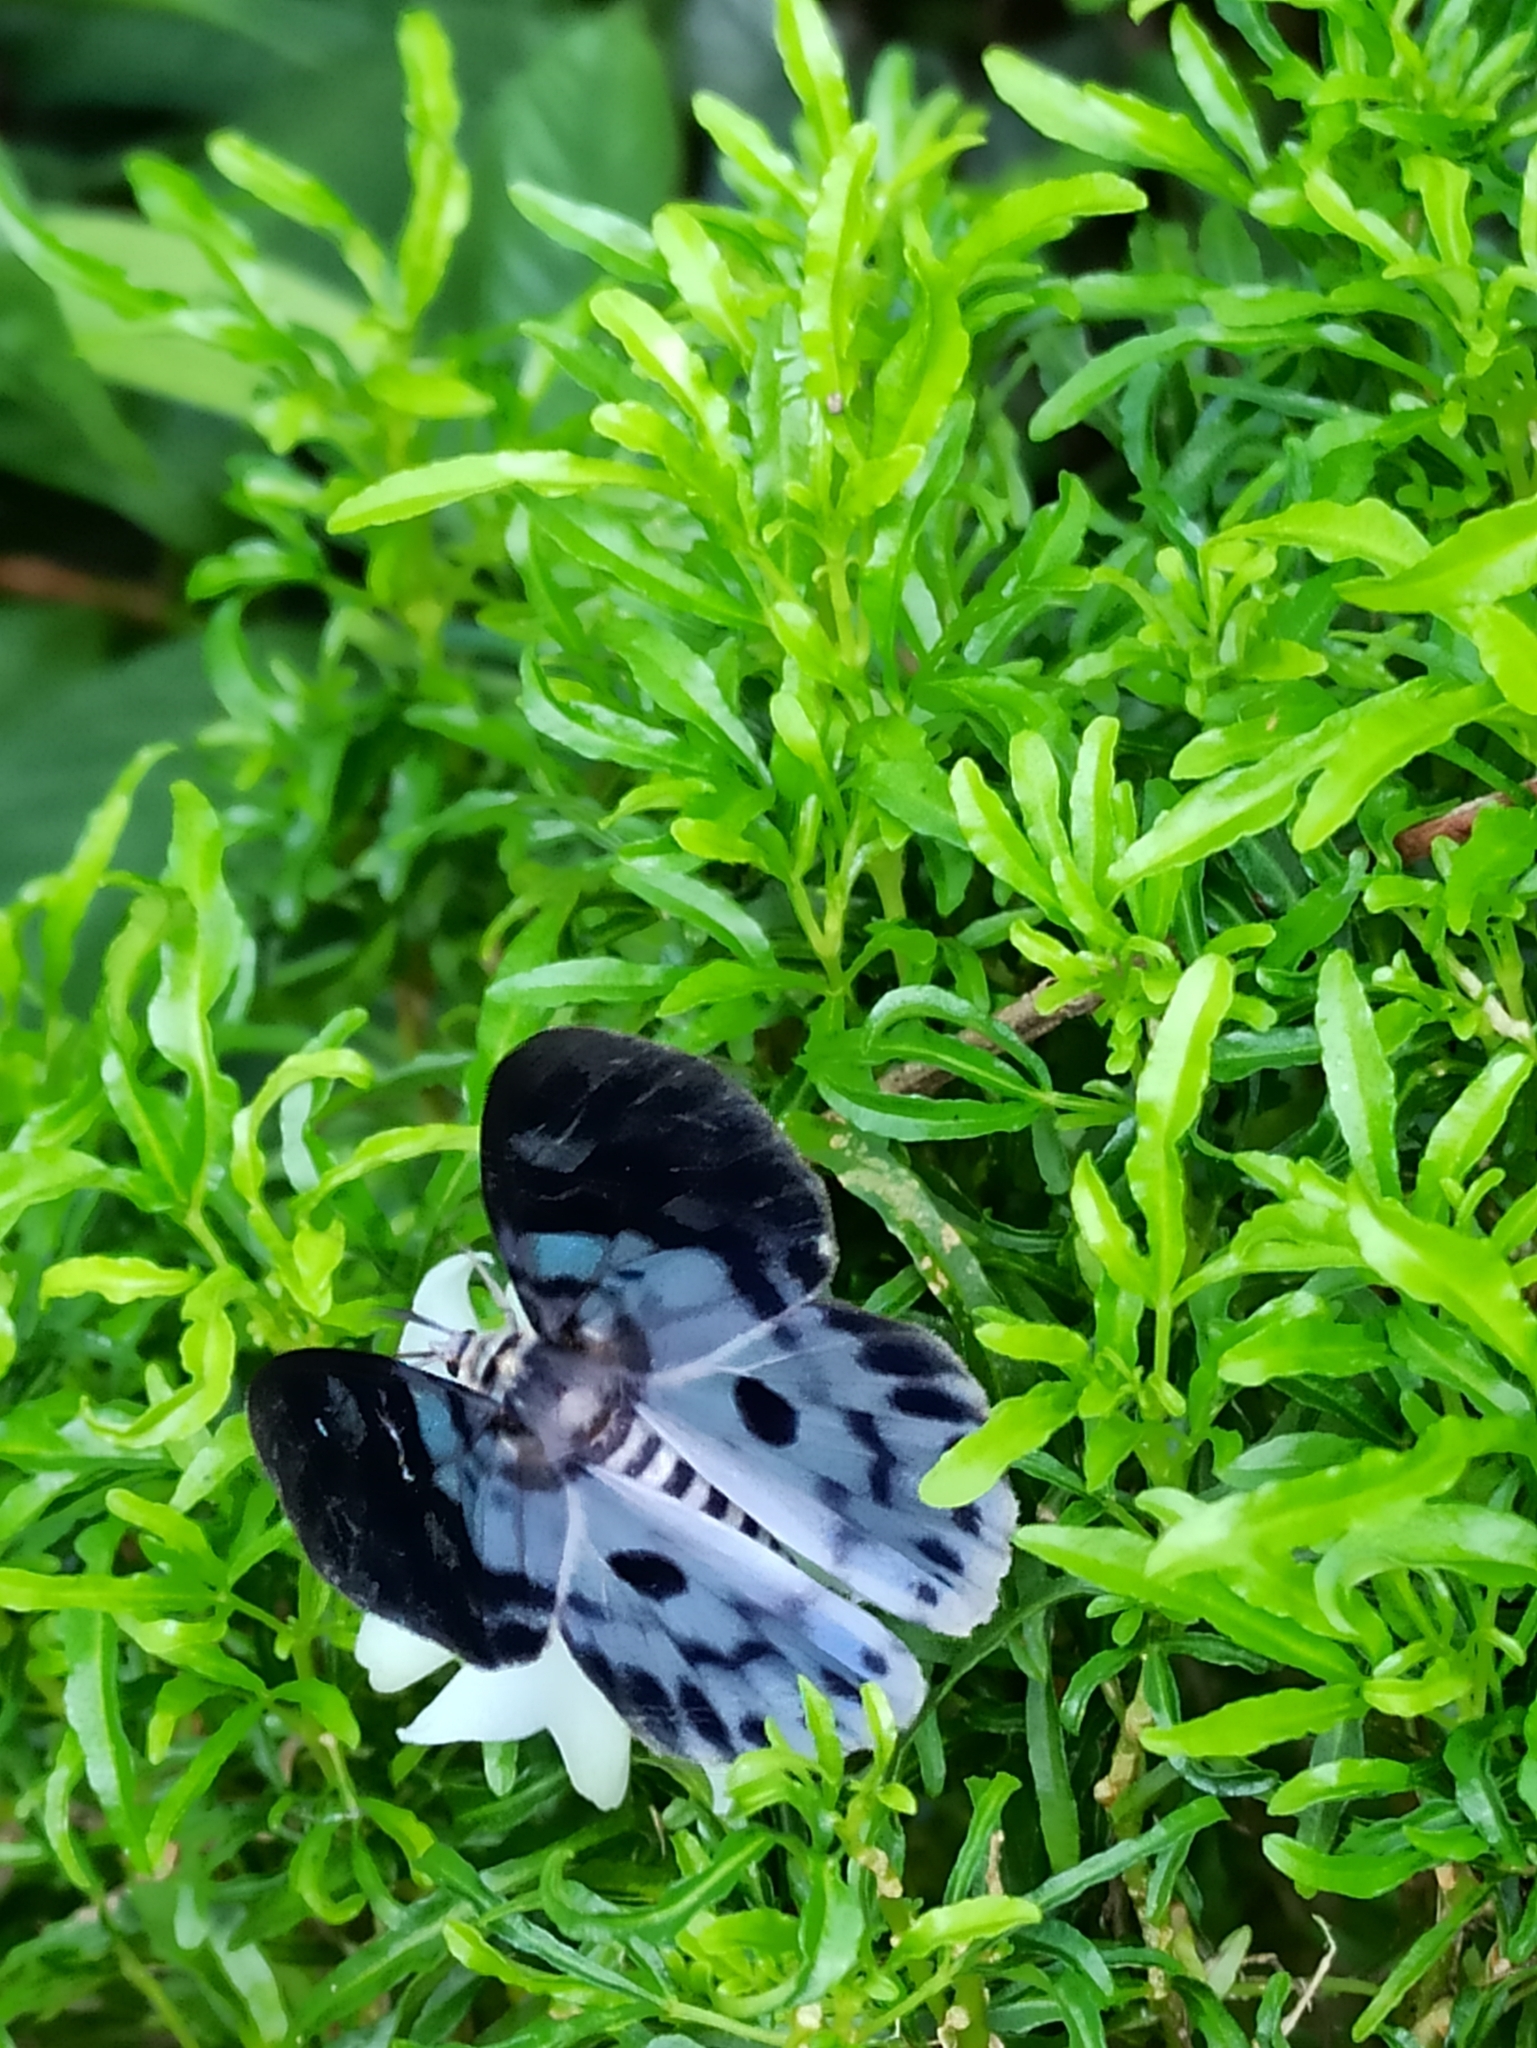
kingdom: Animalia
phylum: Arthropoda
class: Insecta
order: Lepidoptera
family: Geometridae
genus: Dysphania
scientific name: Dysphania percota
